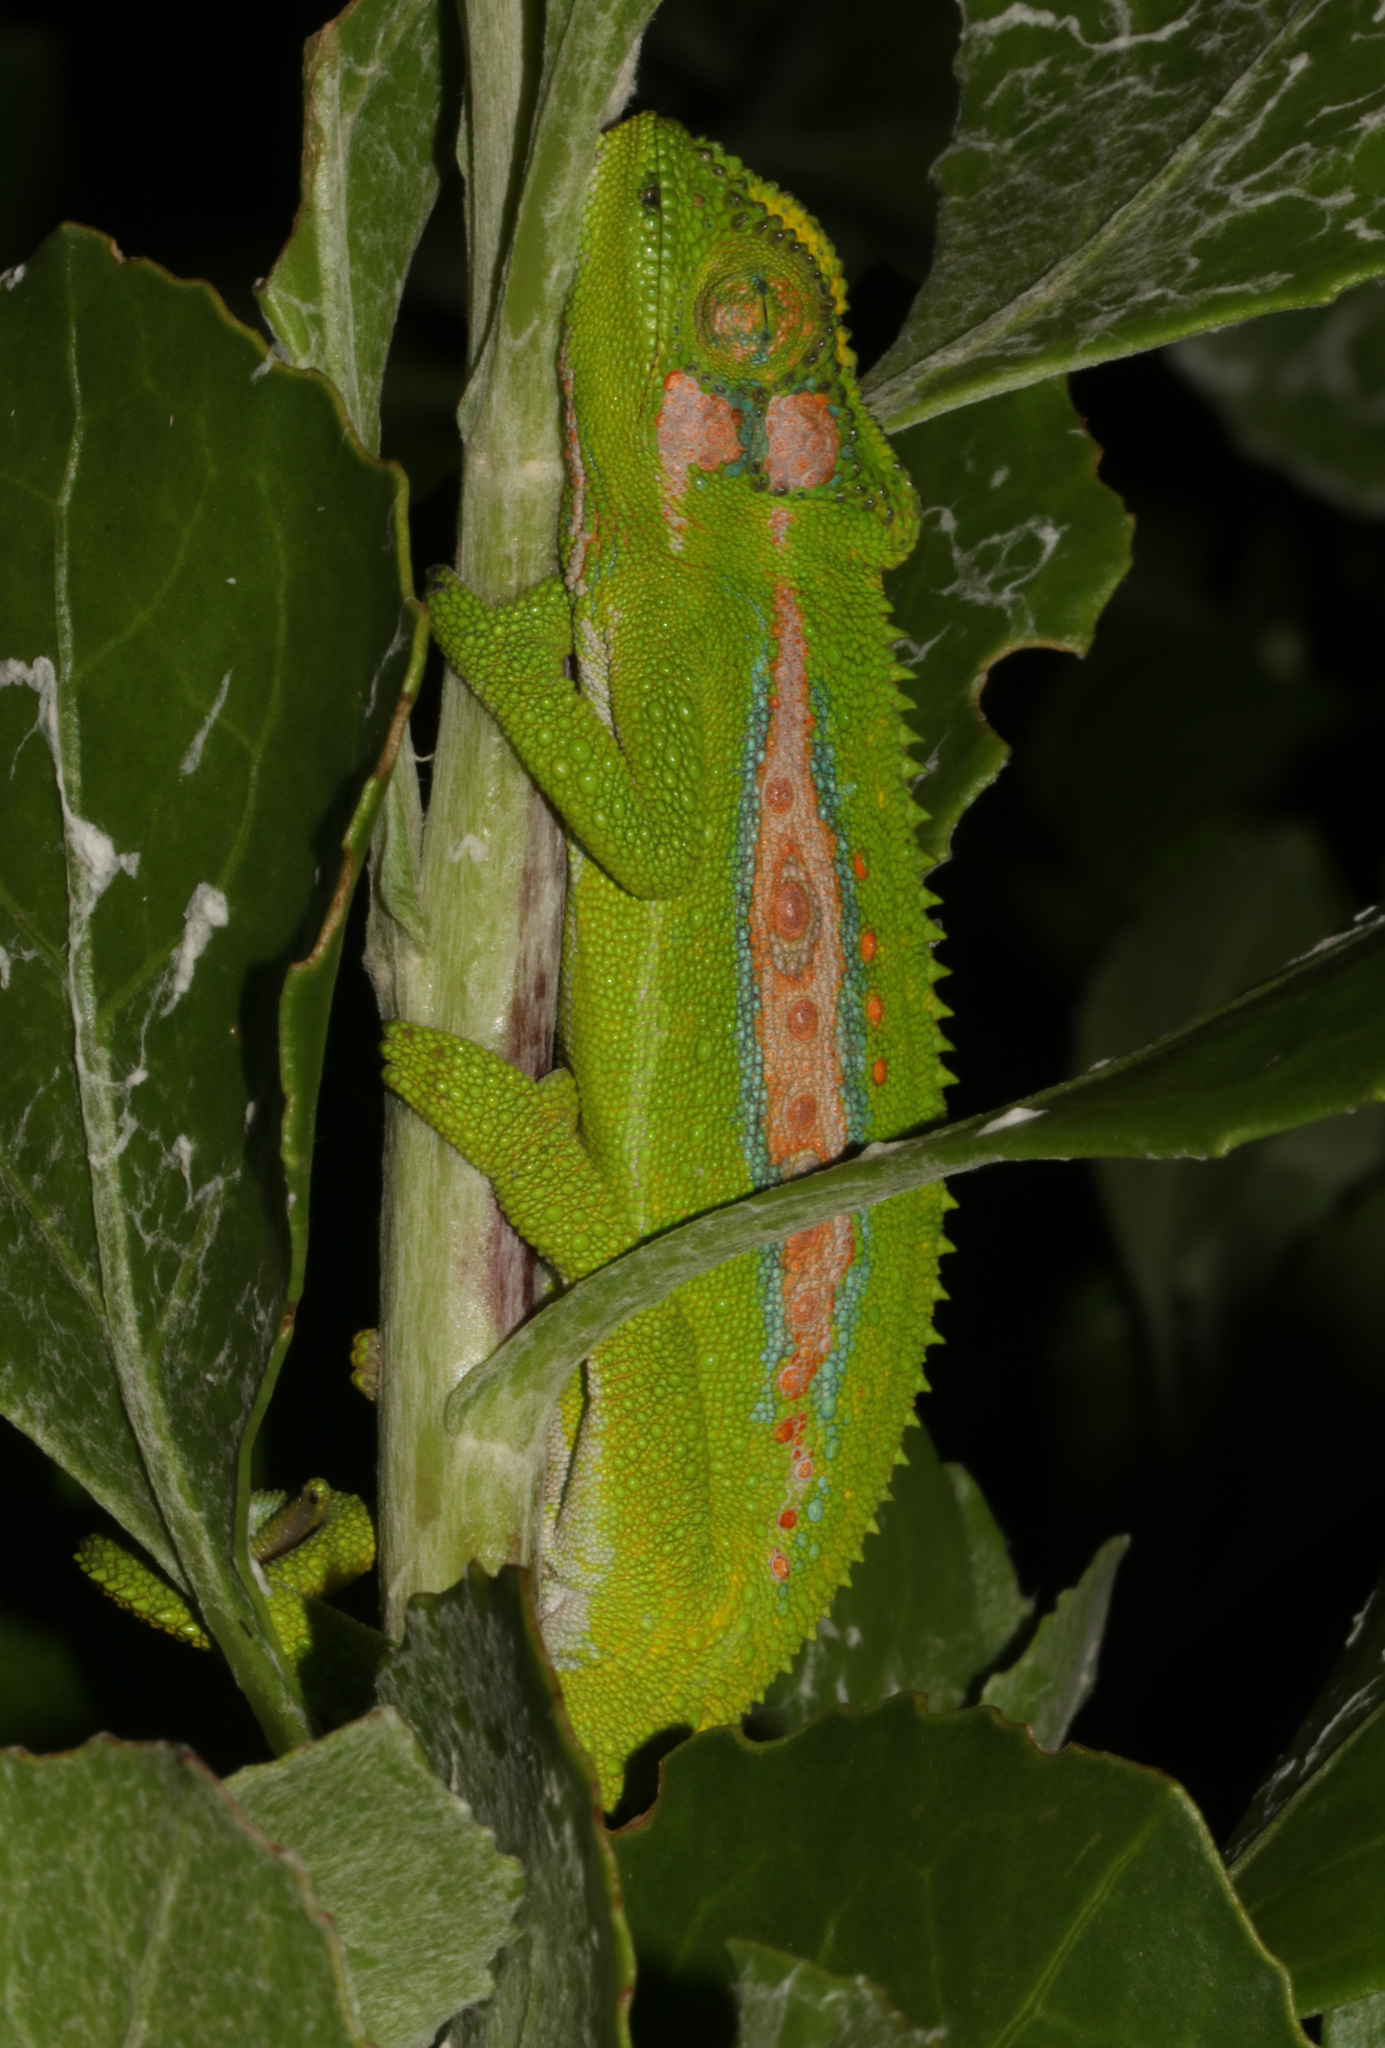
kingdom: Animalia
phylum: Chordata
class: Squamata
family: Chamaeleonidae
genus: Bradypodion
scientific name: Bradypodion pumilum
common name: Cape dwarf chameleon
